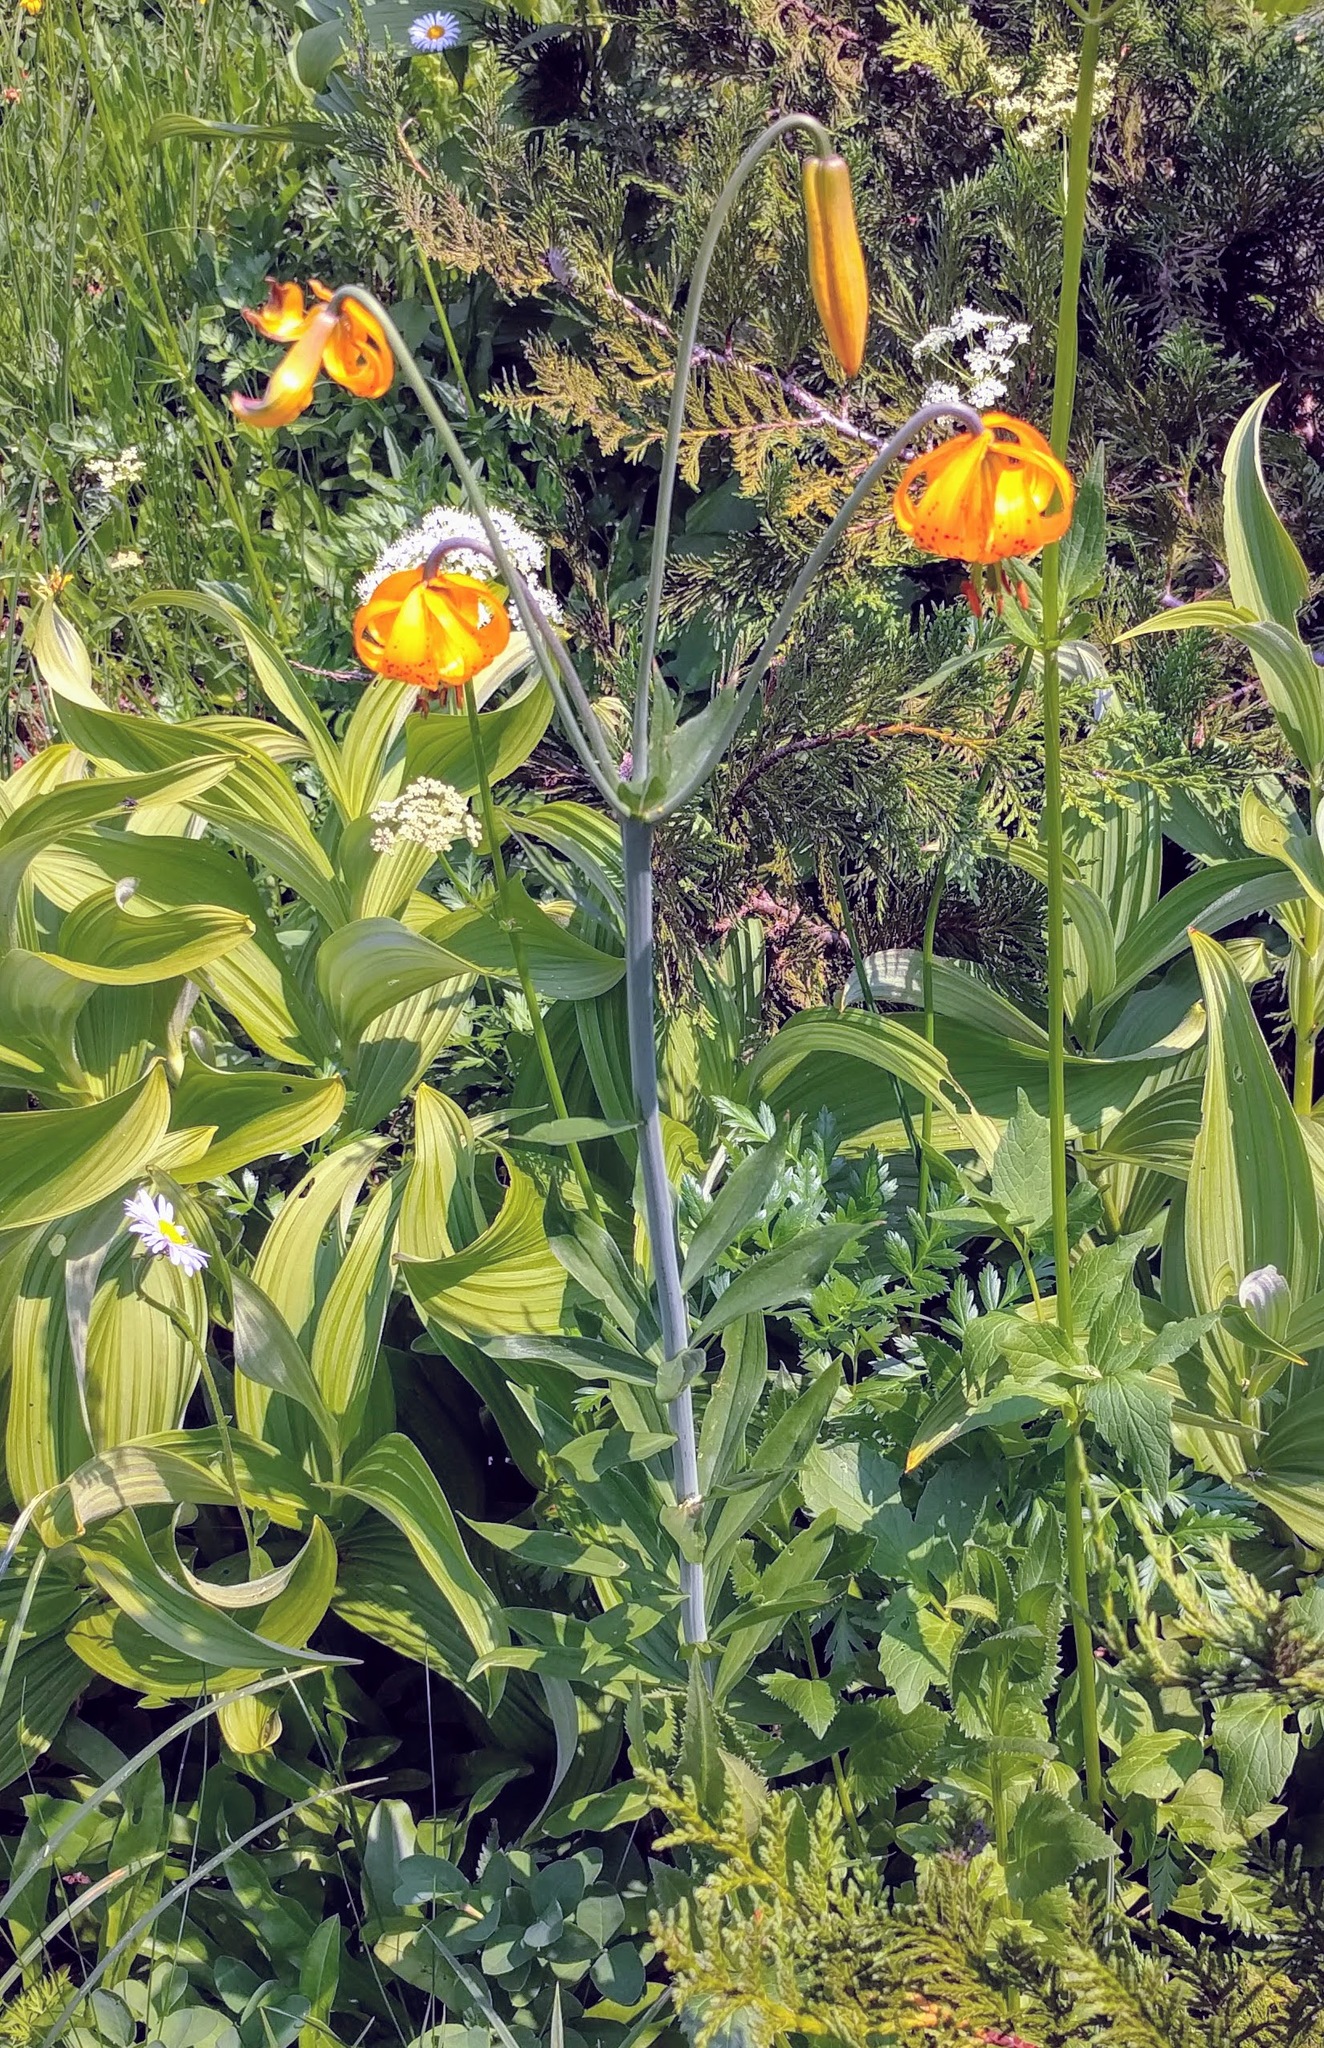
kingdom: Plantae
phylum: Tracheophyta
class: Liliopsida
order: Liliales
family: Liliaceae
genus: Lilium
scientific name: Lilium columbianum
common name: Columbia lily
